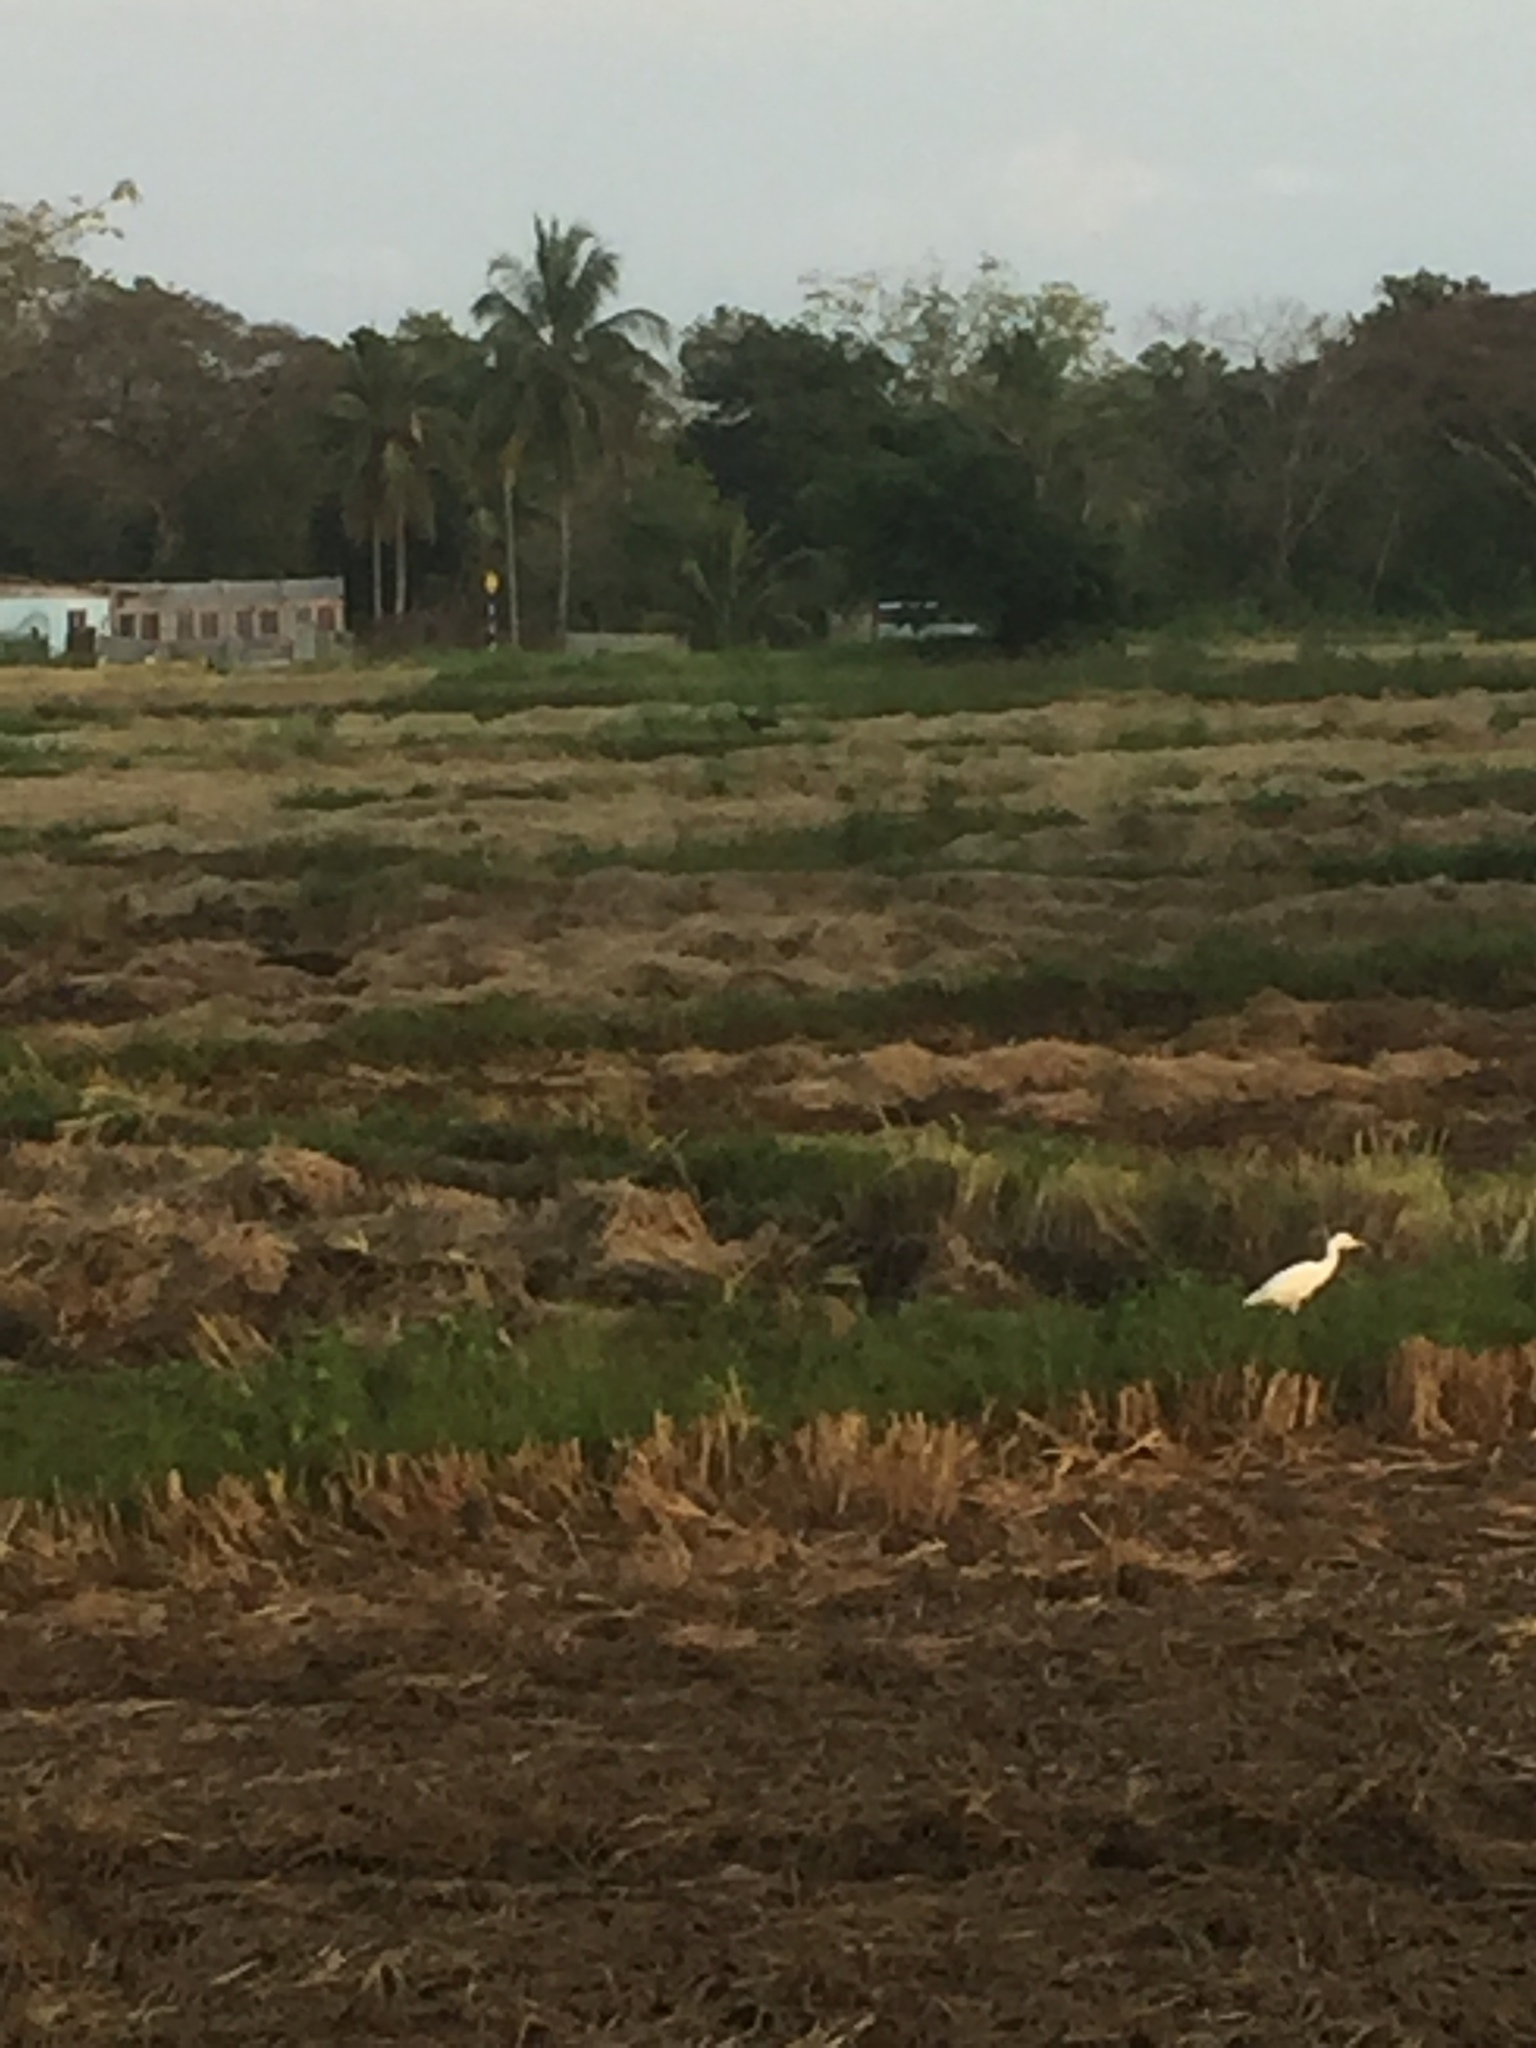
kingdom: Animalia
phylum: Chordata
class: Aves
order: Pelecaniformes
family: Ardeidae
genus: Bubulcus
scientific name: Bubulcus coromandus
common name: Eastern cattle egret
